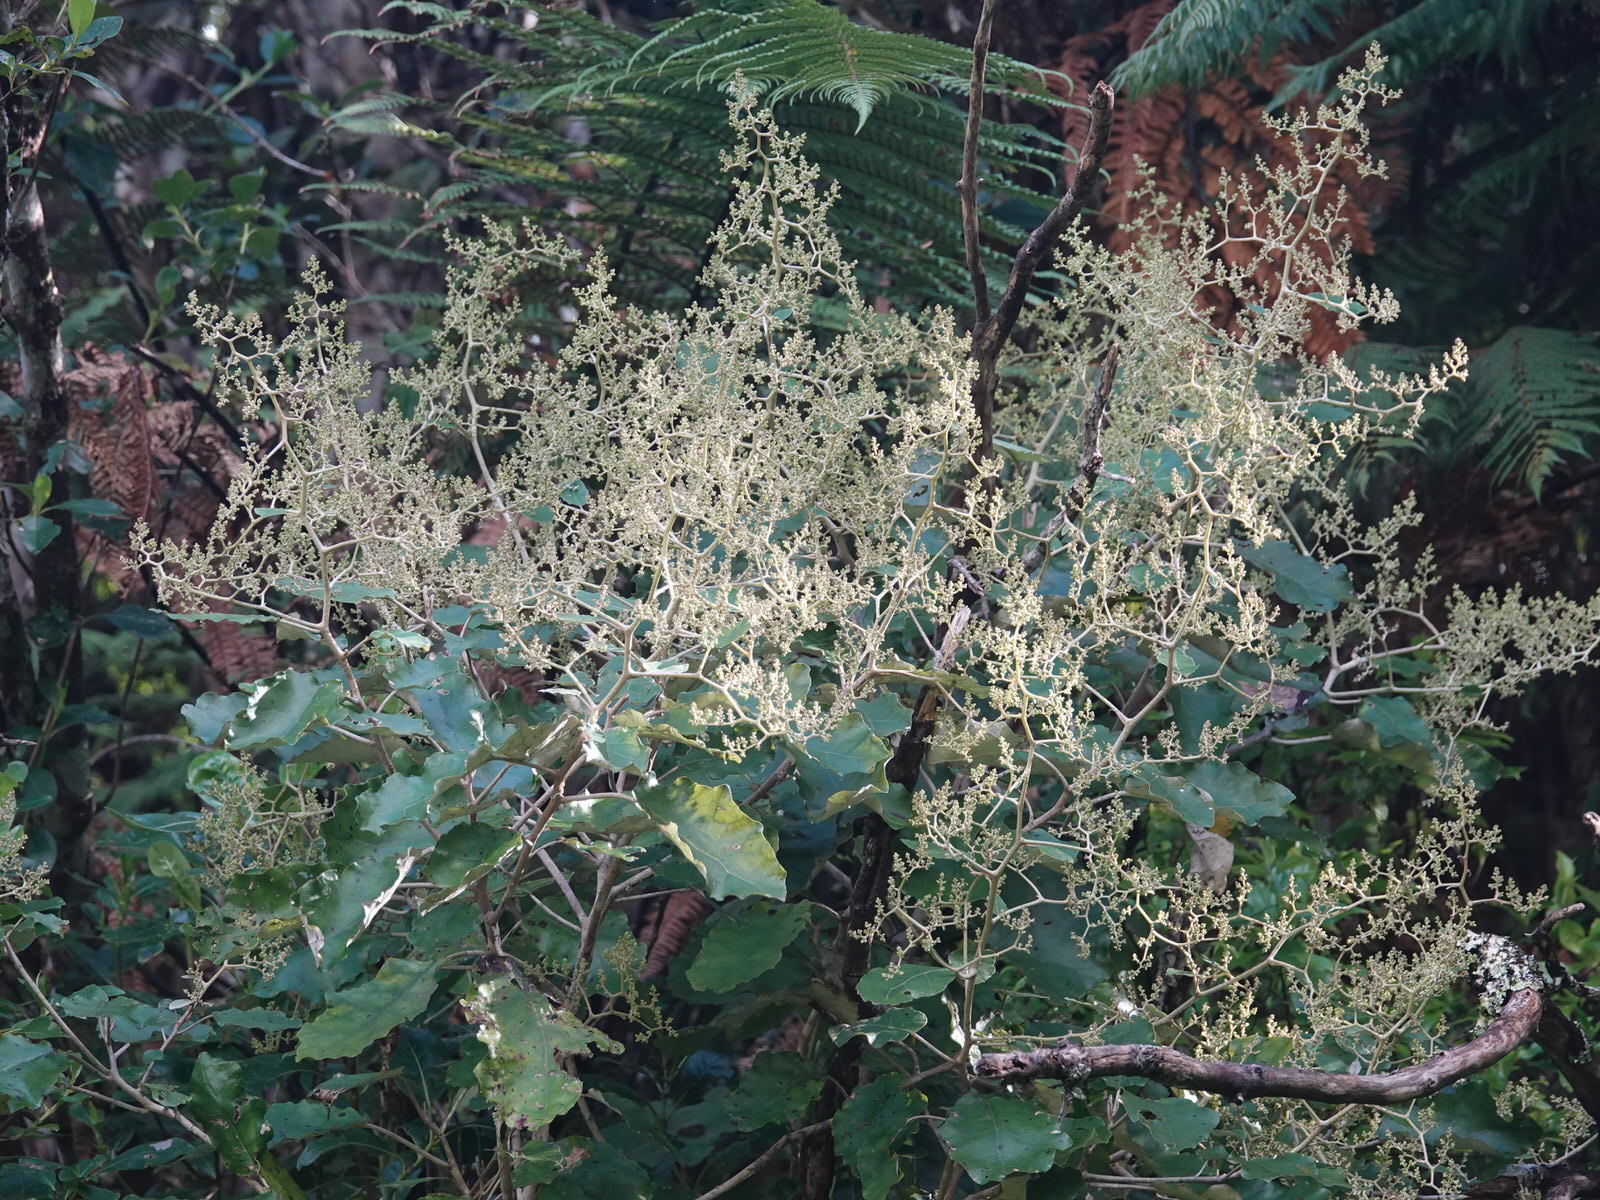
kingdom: Plantae
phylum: Tracheophyta
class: Magnoliopsida
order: Asterales
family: Asteraceae
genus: Brachyglottis
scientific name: Brachyglottis repanda
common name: Hedge ragwort
